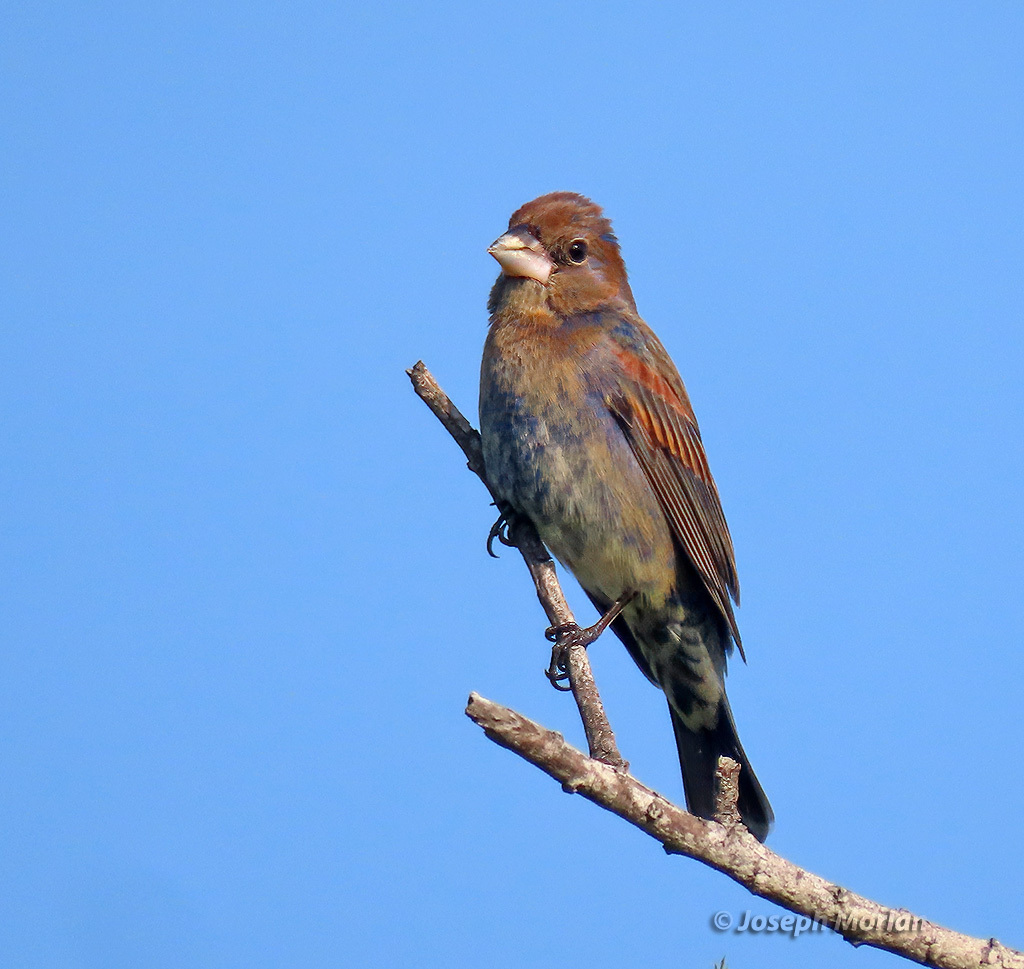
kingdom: Animalia
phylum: Chordata
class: Aves
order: Passeriformes
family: Cardinalidae
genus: Passerina
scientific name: Passerina caerulea
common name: Blue grosbeak
